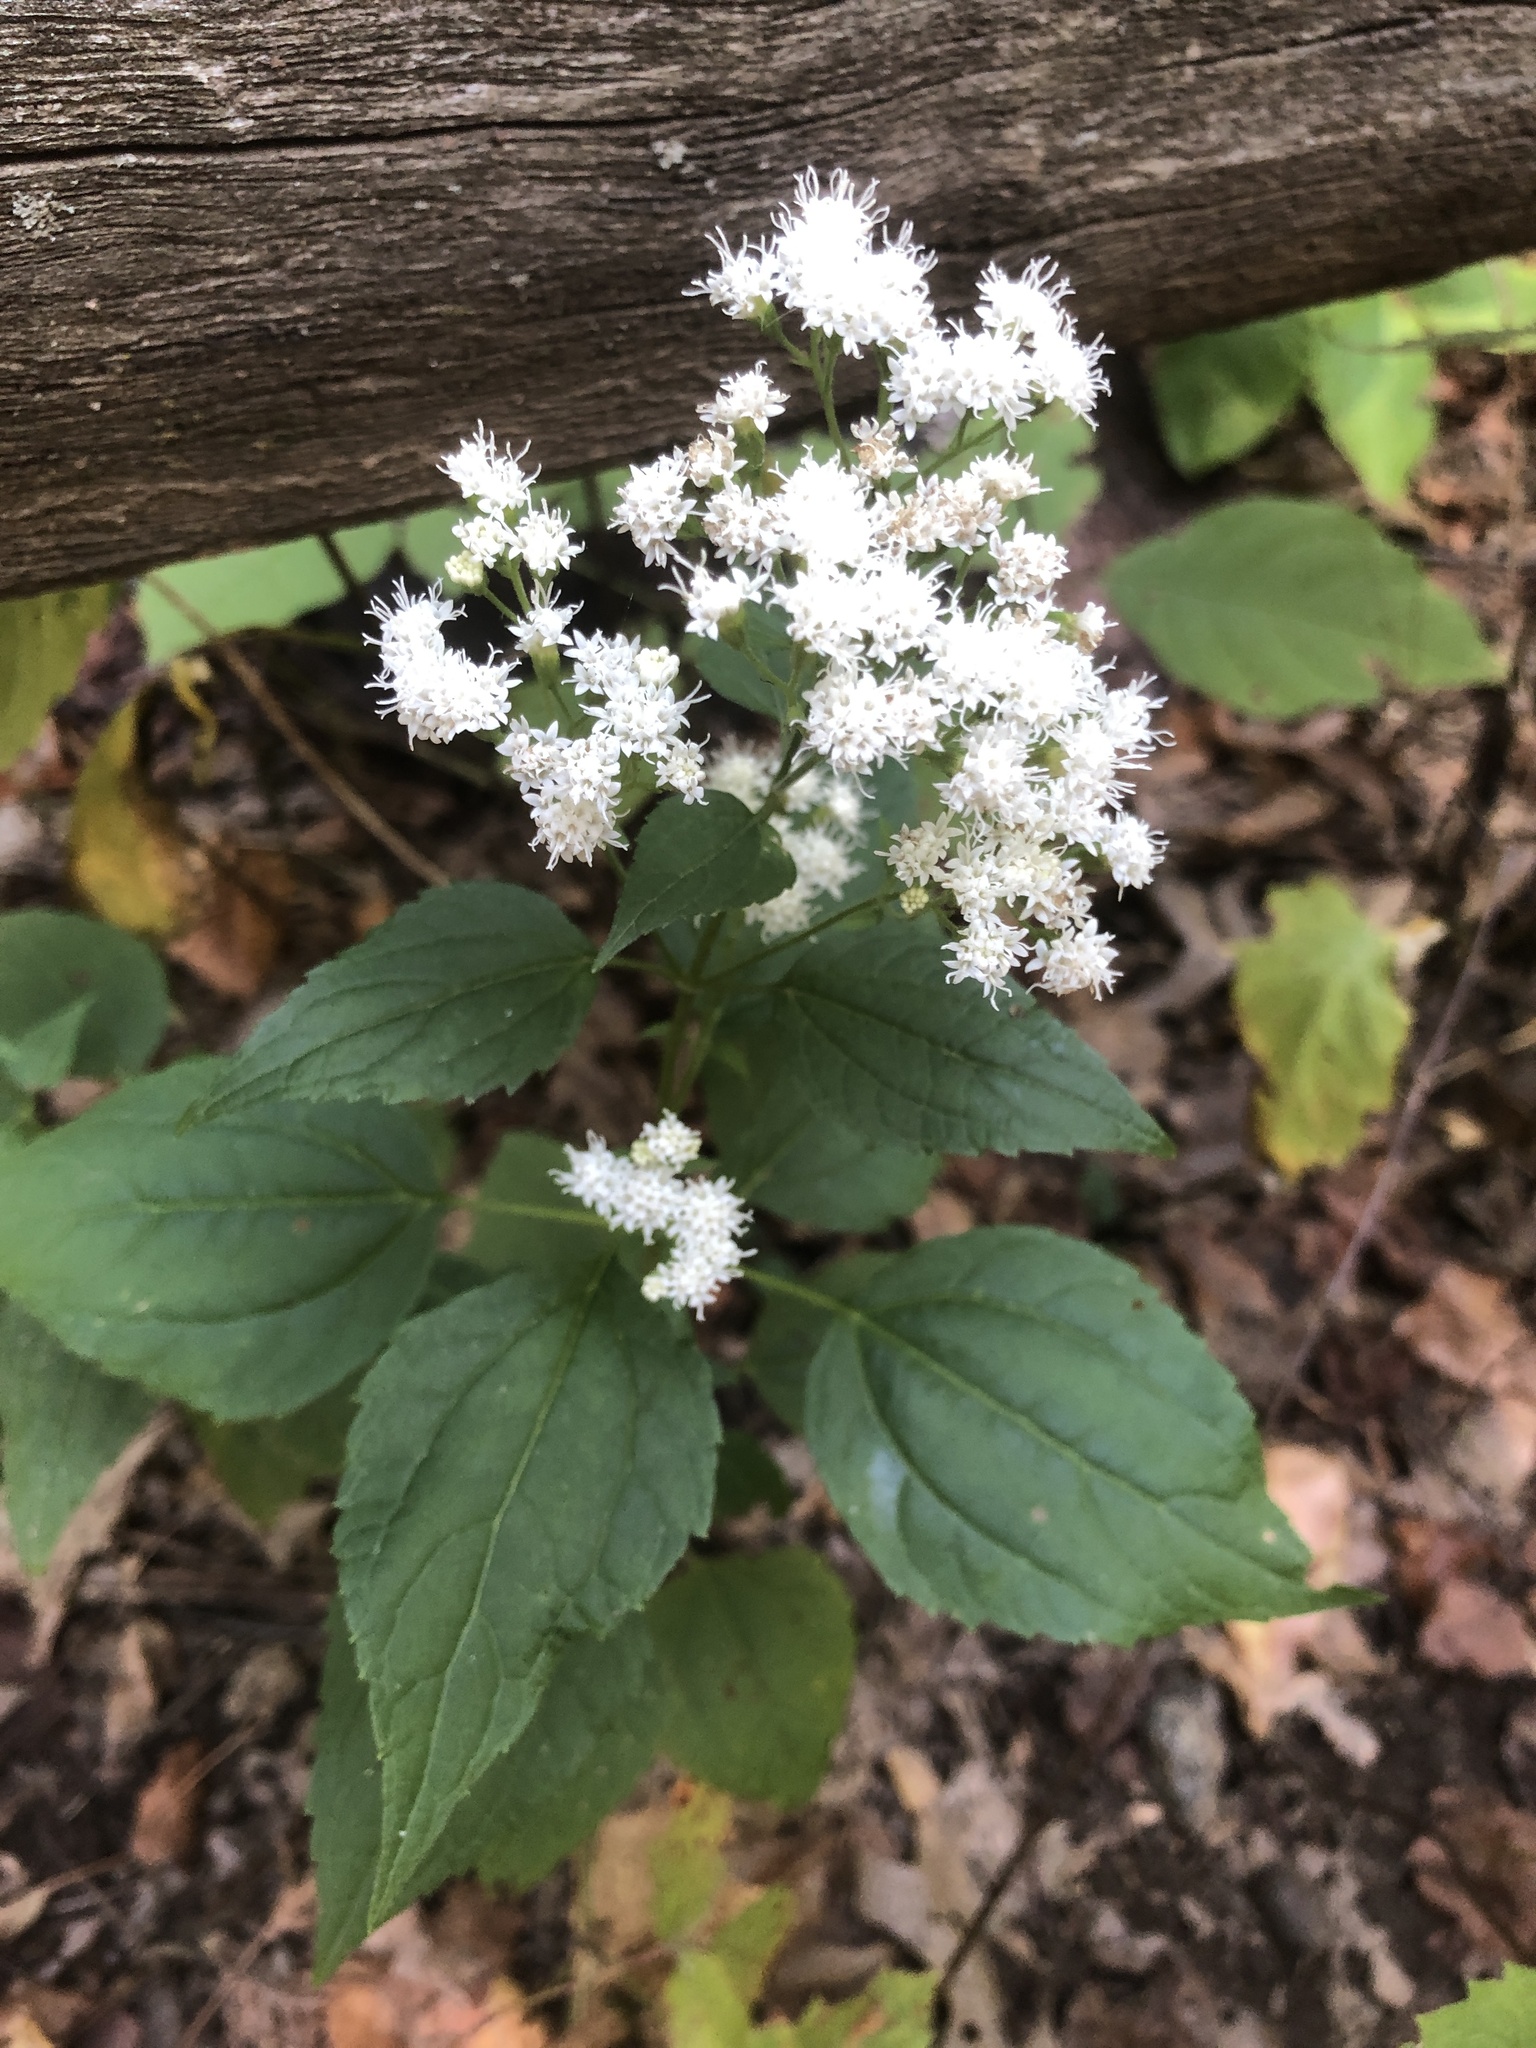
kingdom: Plantae
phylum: Tracheophyta
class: Magnoliopsida
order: Asterales
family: Asteraceae
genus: Ageratina
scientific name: Ageratina altissima
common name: White snakeroot
